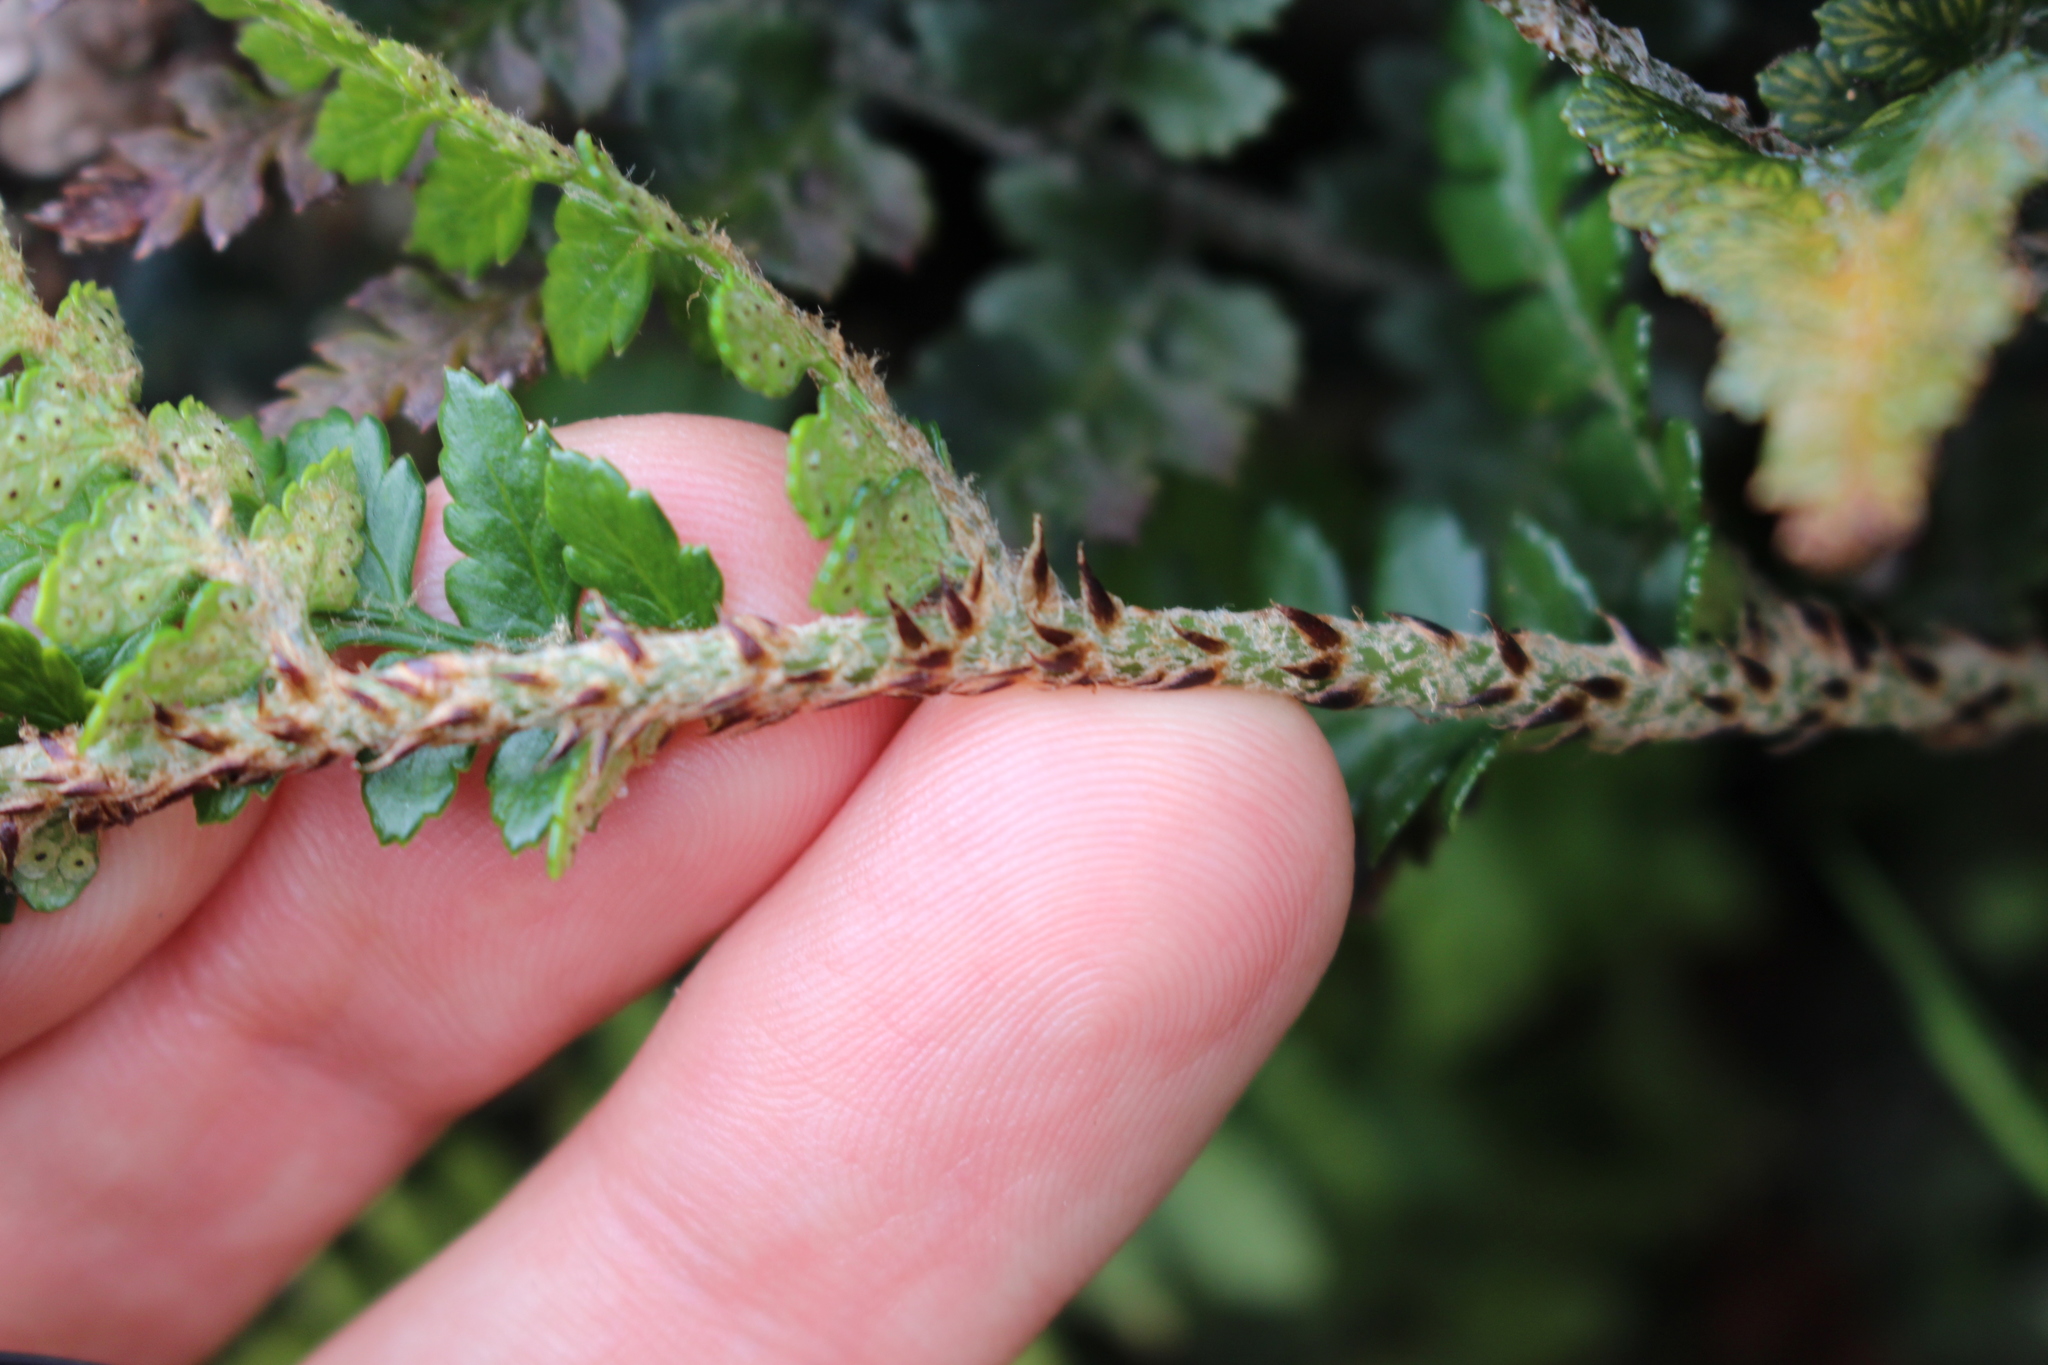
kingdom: Plantae
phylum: Tracheophyta
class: Polypodiopsida
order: Polypodiales
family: Dryopteridaceae
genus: Polystichum
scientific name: Polystichum oculatum
